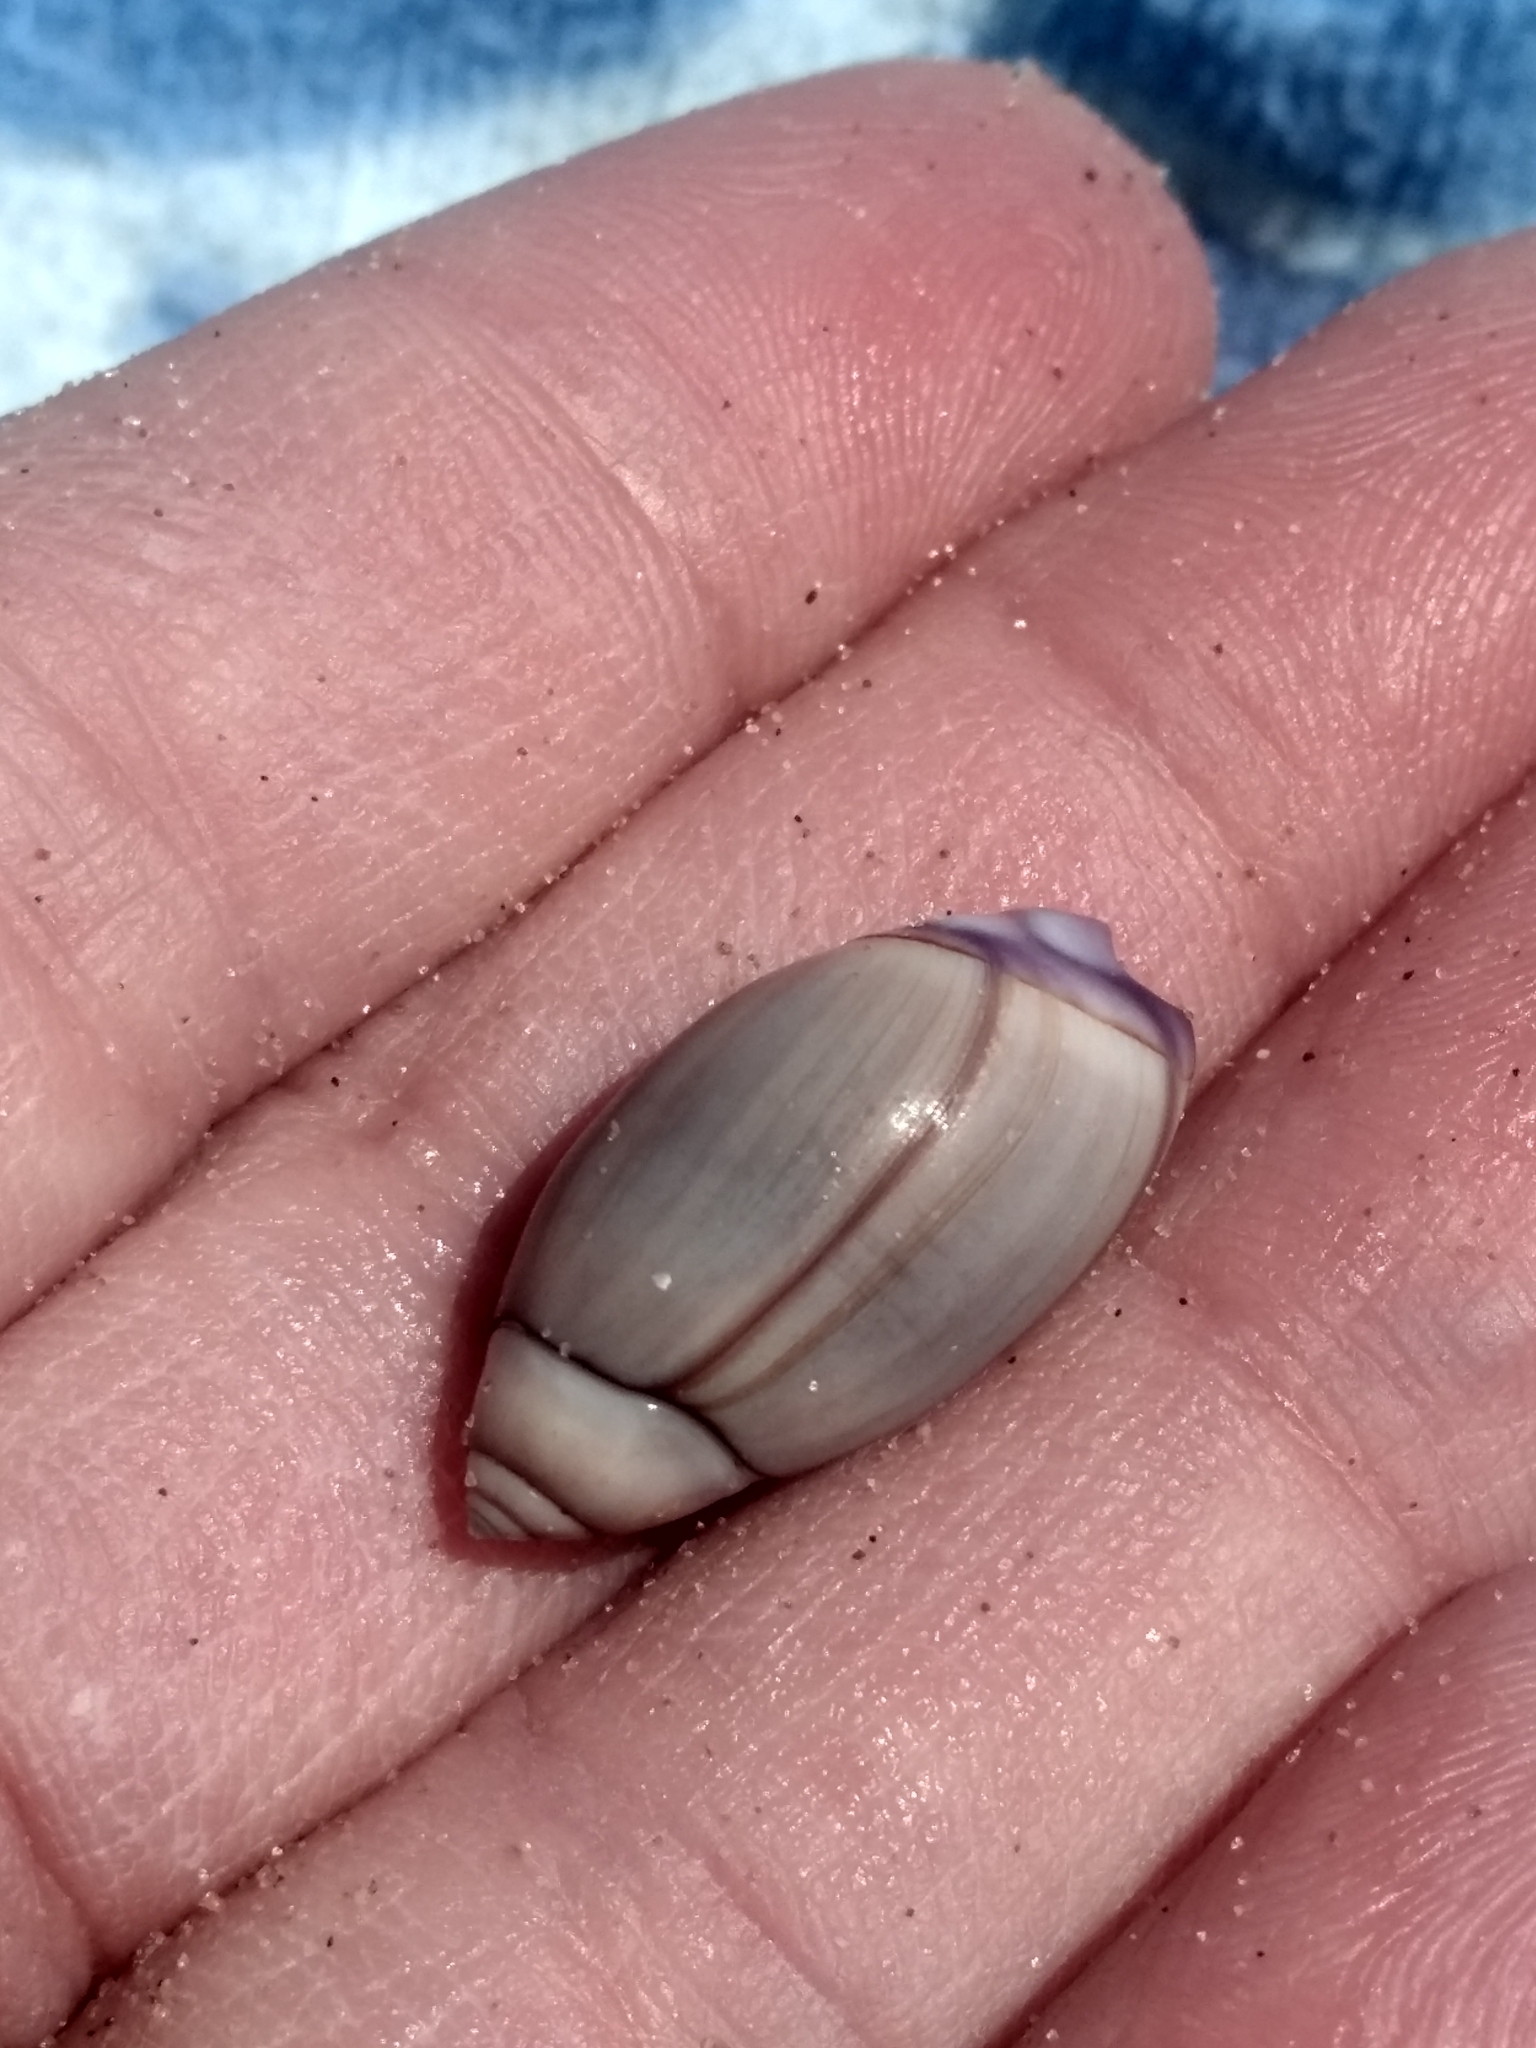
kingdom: Animalia
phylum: Mollusca
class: Gastropoda
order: Neogastropoda
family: Olividae
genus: Callianax
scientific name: Callianax biplicata
